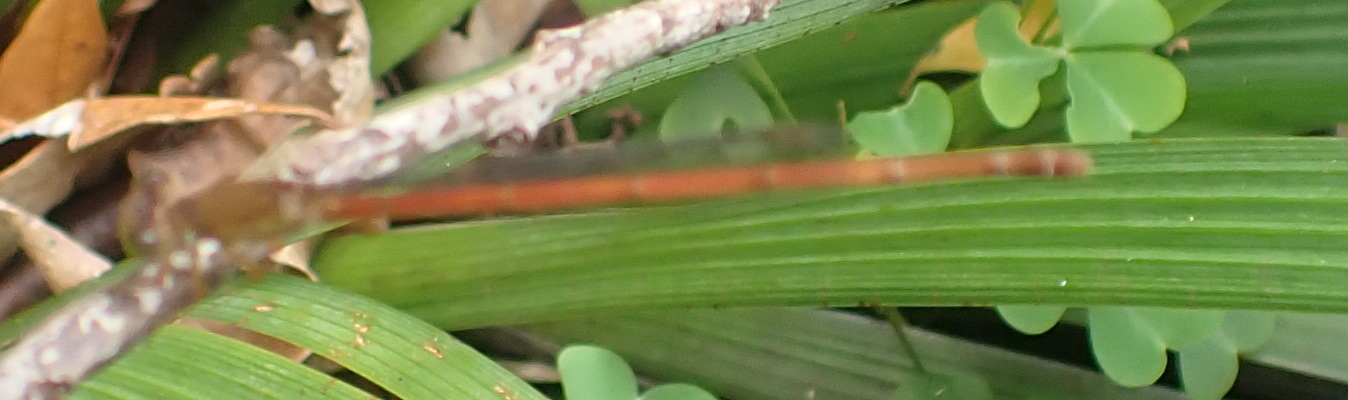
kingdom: Animalia
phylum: Arthropoda
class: Insecta
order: Odonata
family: Coenagrionidae
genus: Ceriagrion
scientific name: Ceriagrion glabrum
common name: Common pond damsel
